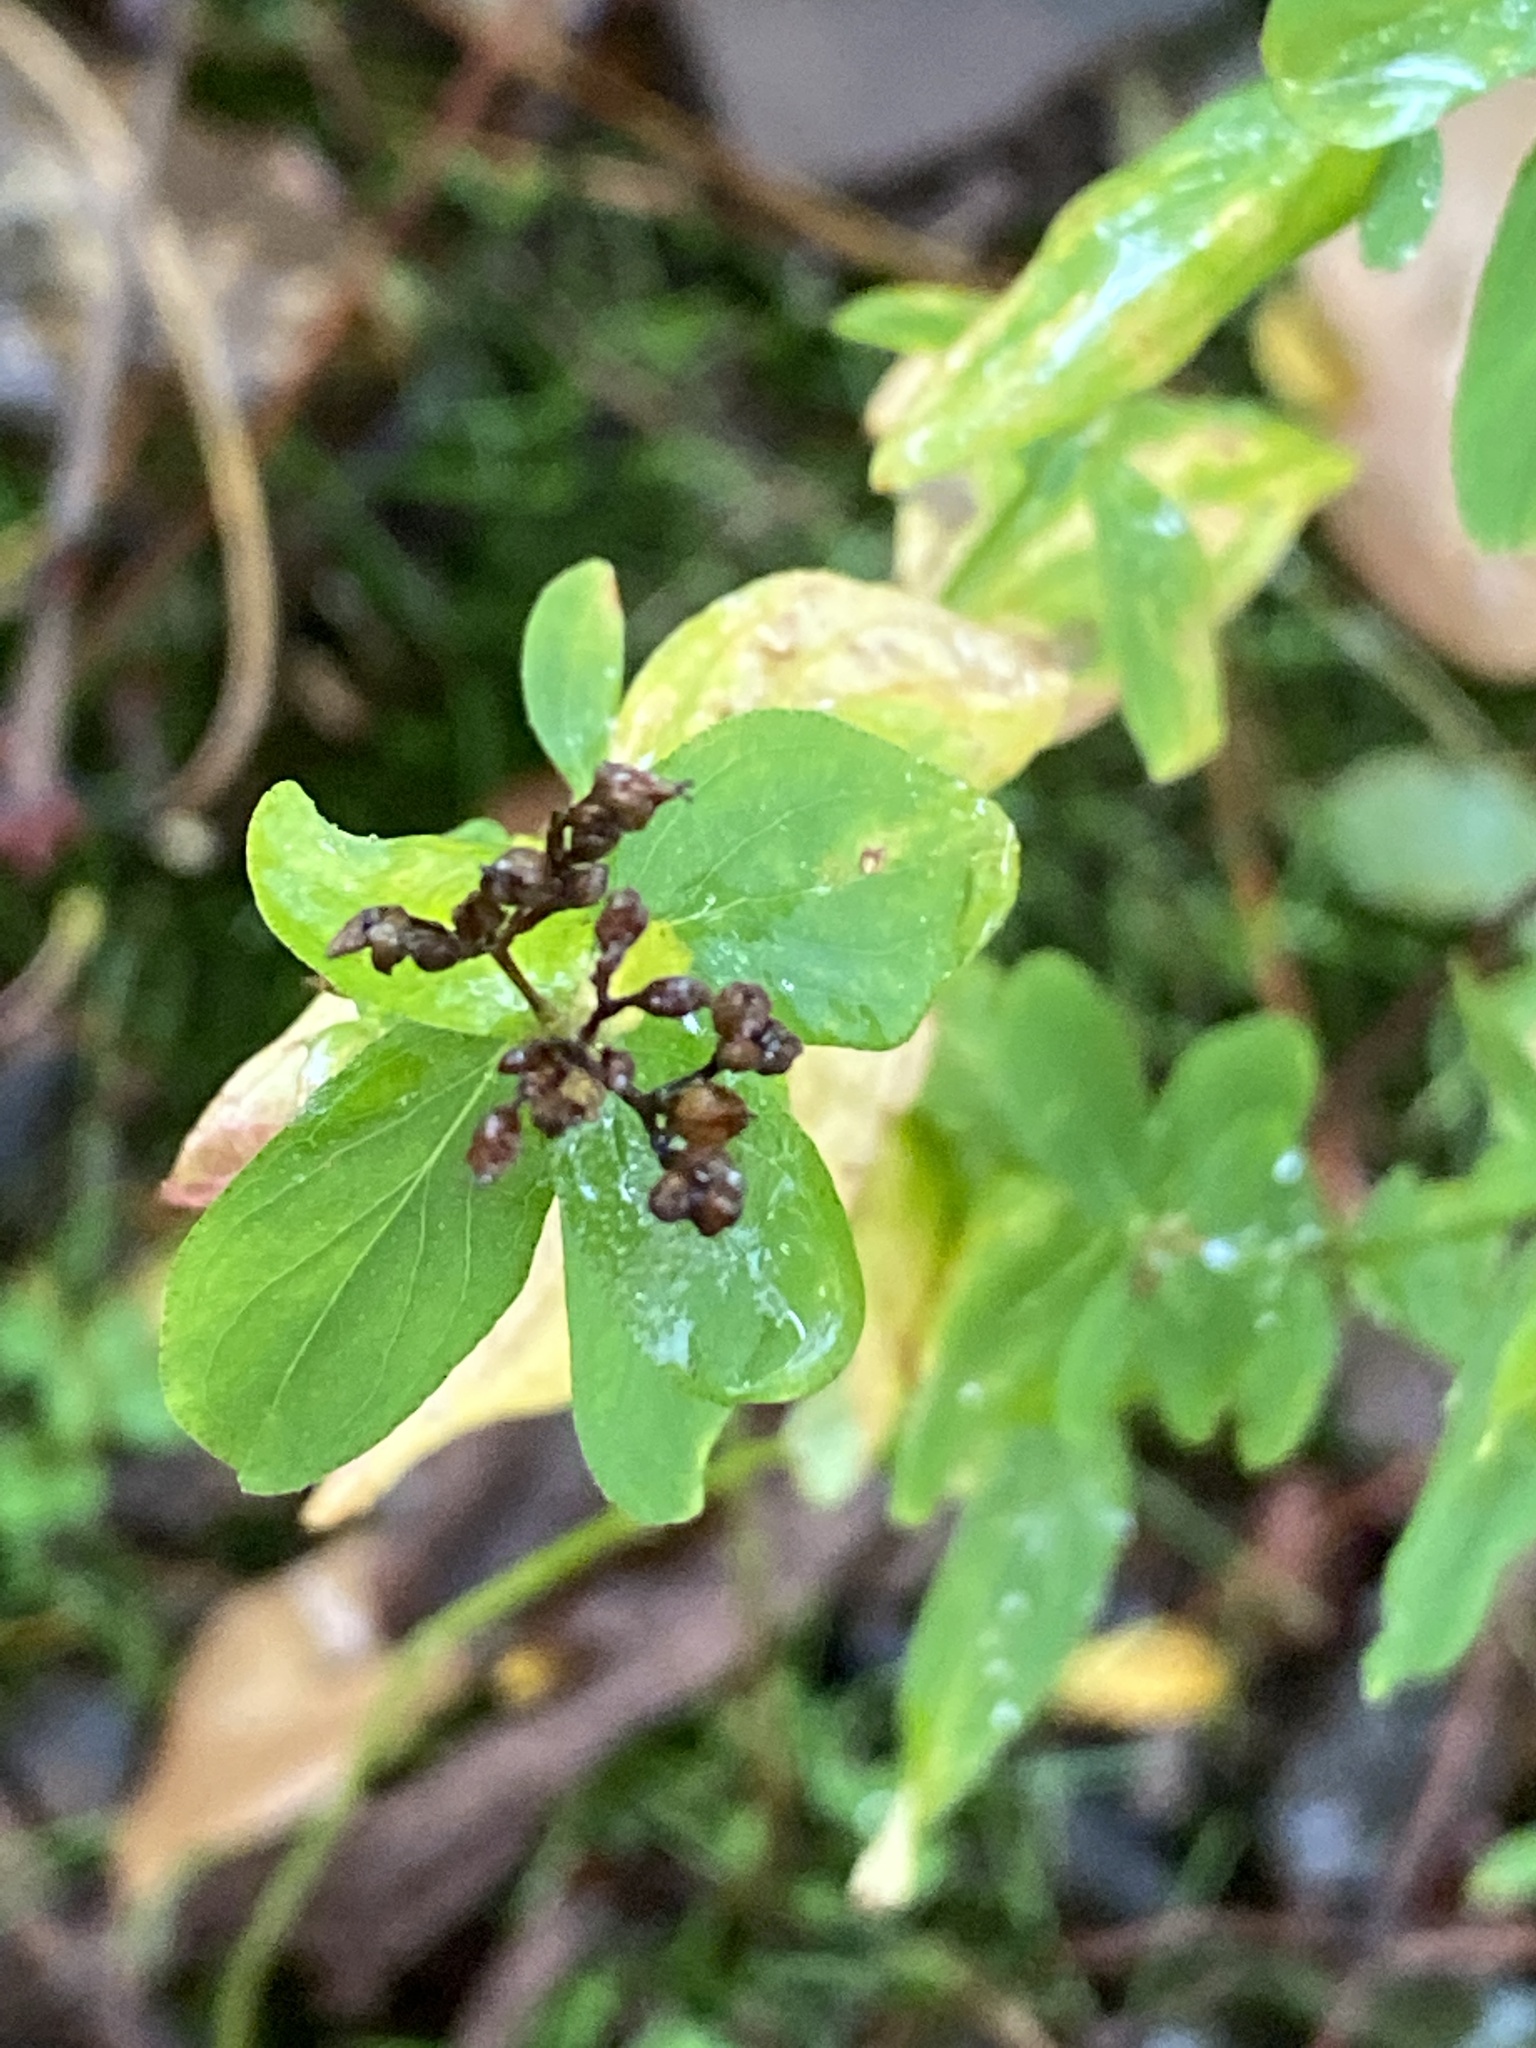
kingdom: Plantae
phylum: Tracheophyta
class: Magnoliopsida
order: Malpighiales
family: Hypericaceae
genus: Hypericum
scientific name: Hypericum punctatum
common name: Spotted st. john's-wort
